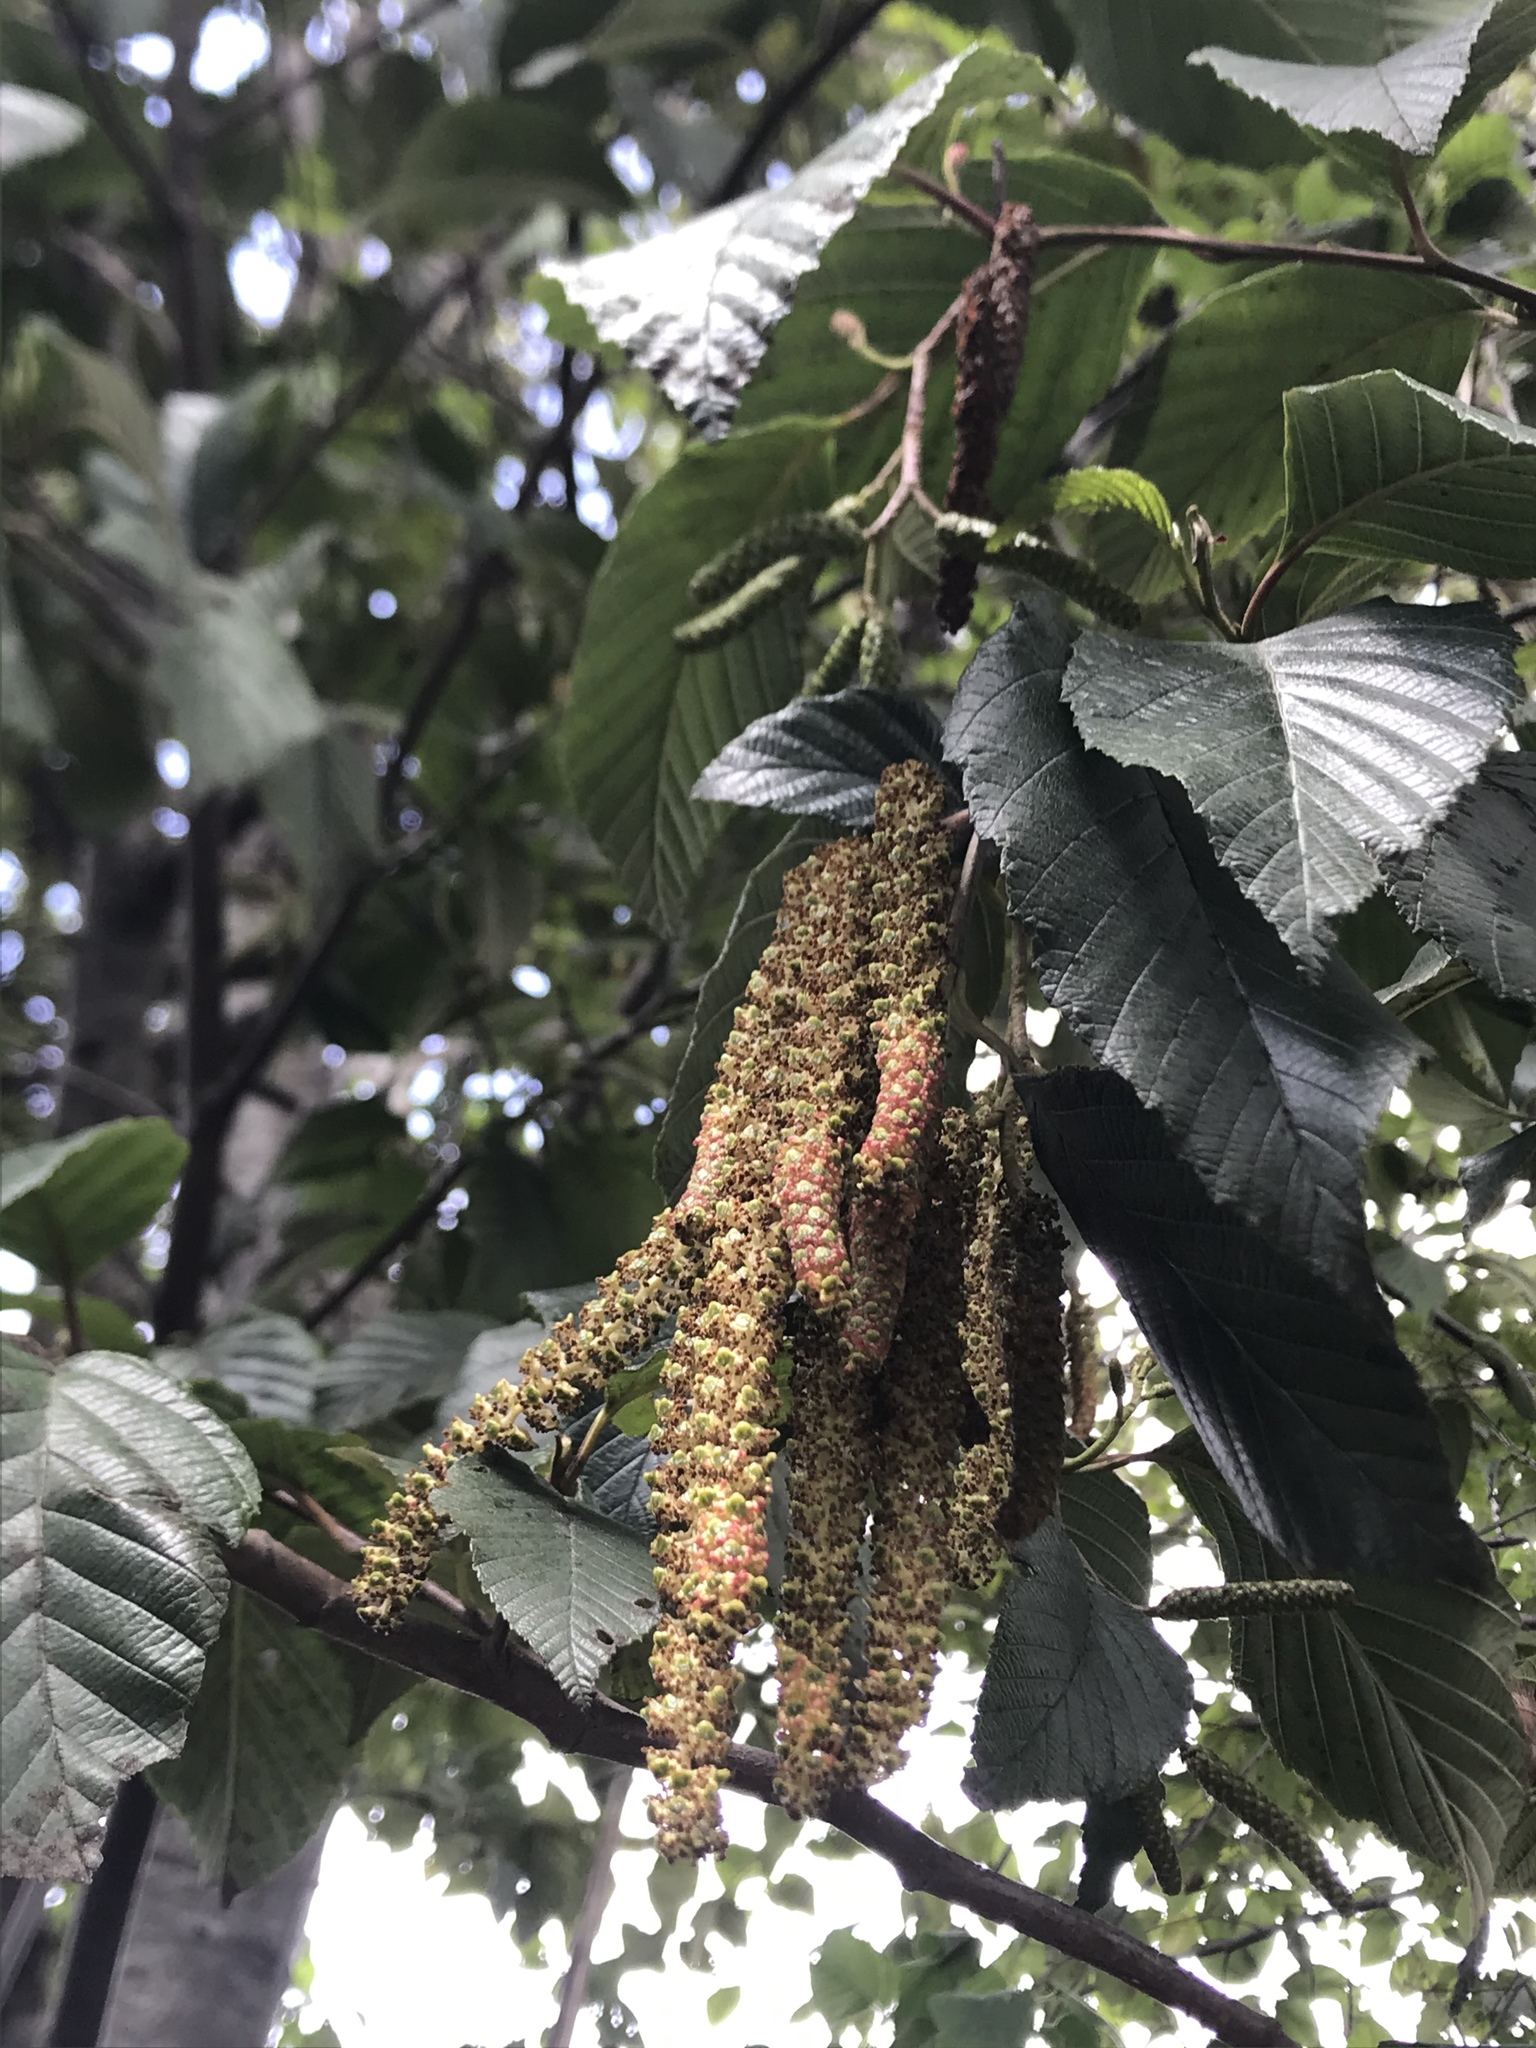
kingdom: Plantae
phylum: Tracheophyta
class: Magnoliopsida
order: Fagales
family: Betulaceae
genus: Alnus
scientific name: Alnus acuminata
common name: Alder
